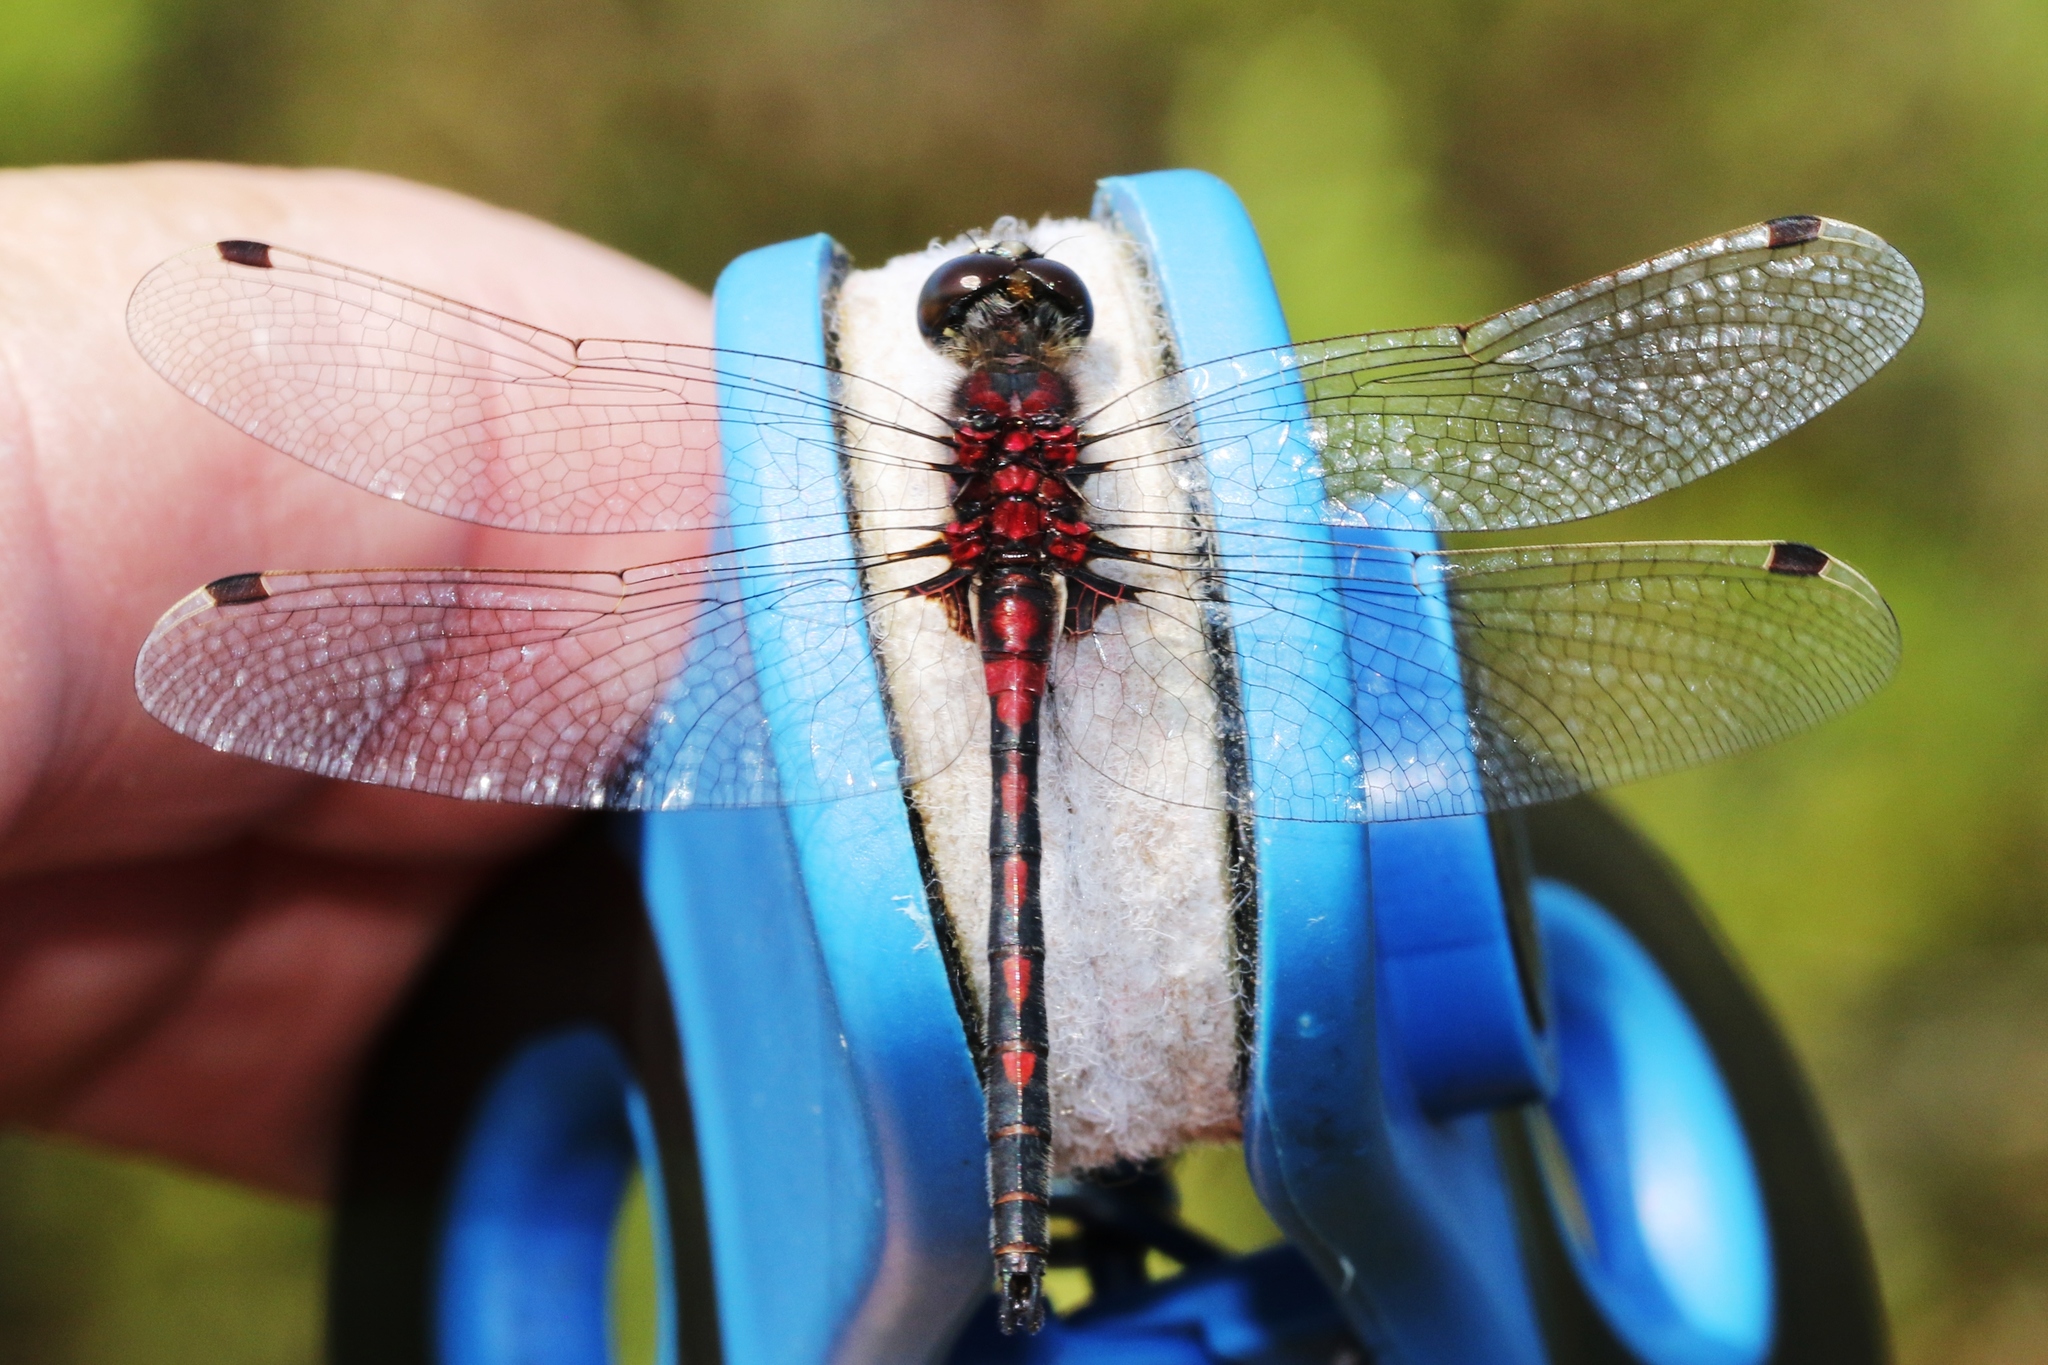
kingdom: Animalia
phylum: Arthropoda
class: Insecta
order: Odonata
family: Libellulidae
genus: Leucorrhinia
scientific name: Leucorrhinia hudsonica
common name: Hudsonian whiteface
